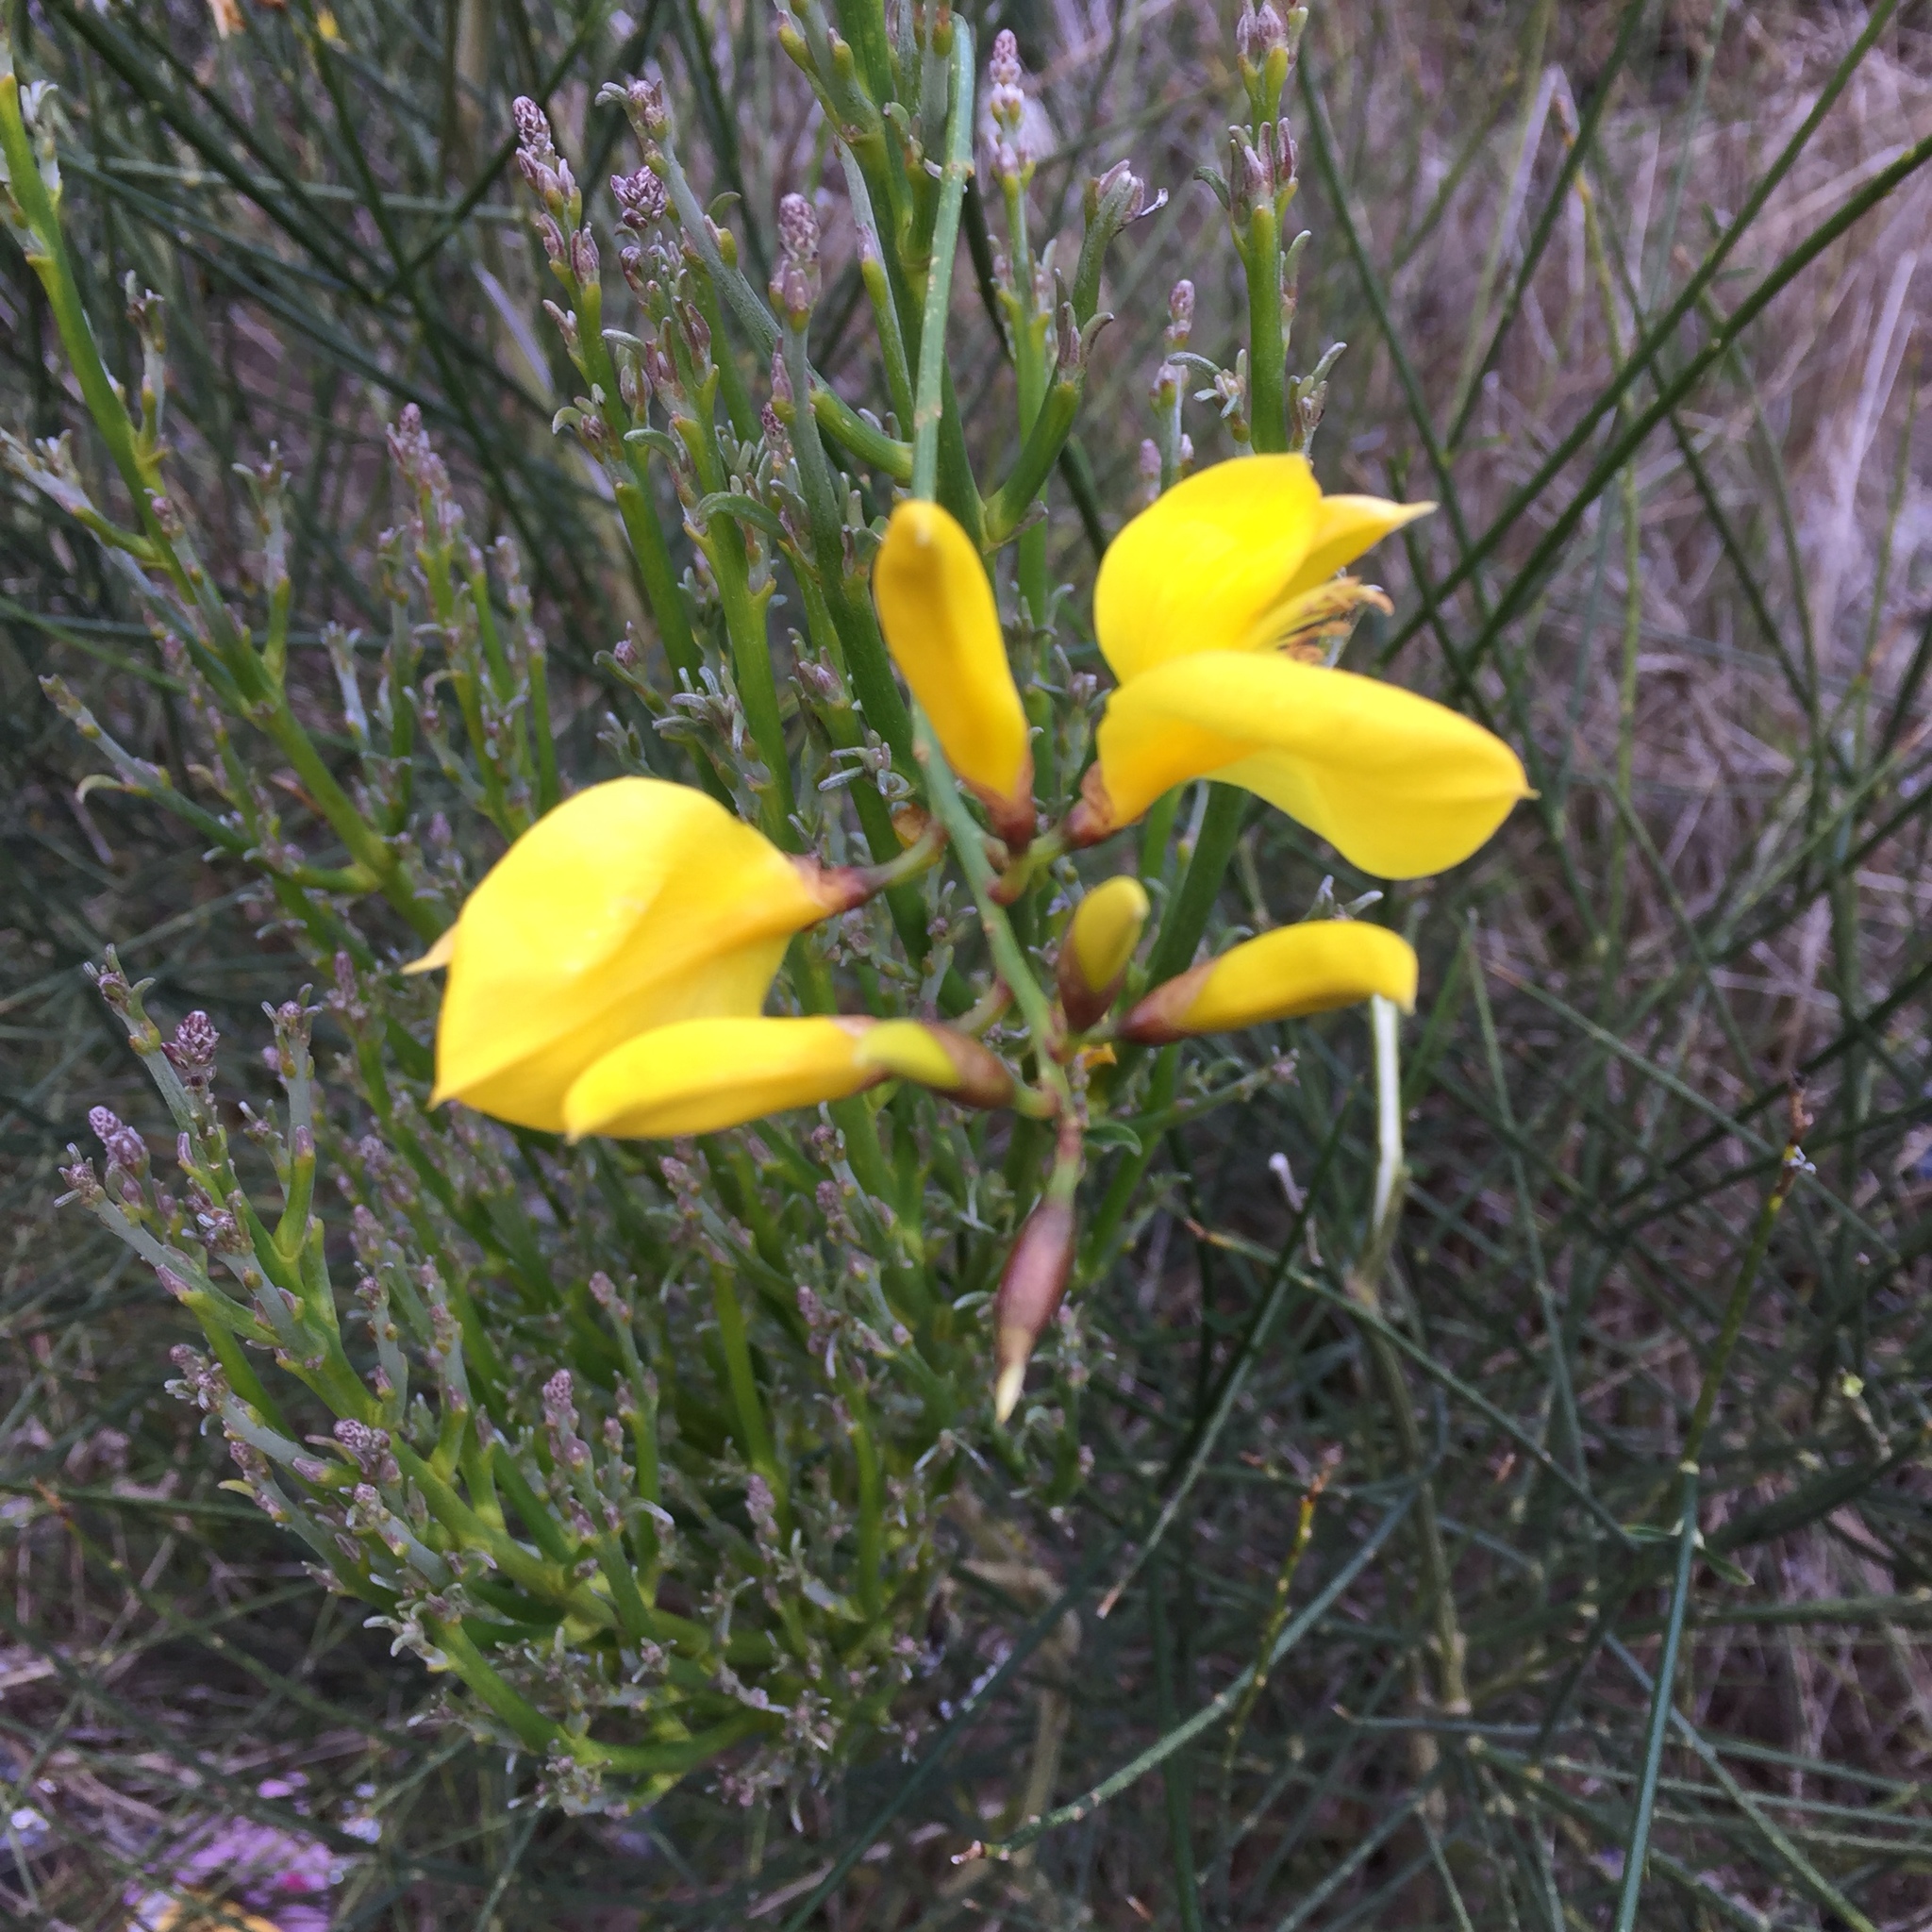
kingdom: Plantae
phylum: Tracheophyta
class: Magnoliopsida
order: Fabales
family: Fabaceae
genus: Spartium
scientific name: Spartium junceum
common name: Spanish broom
